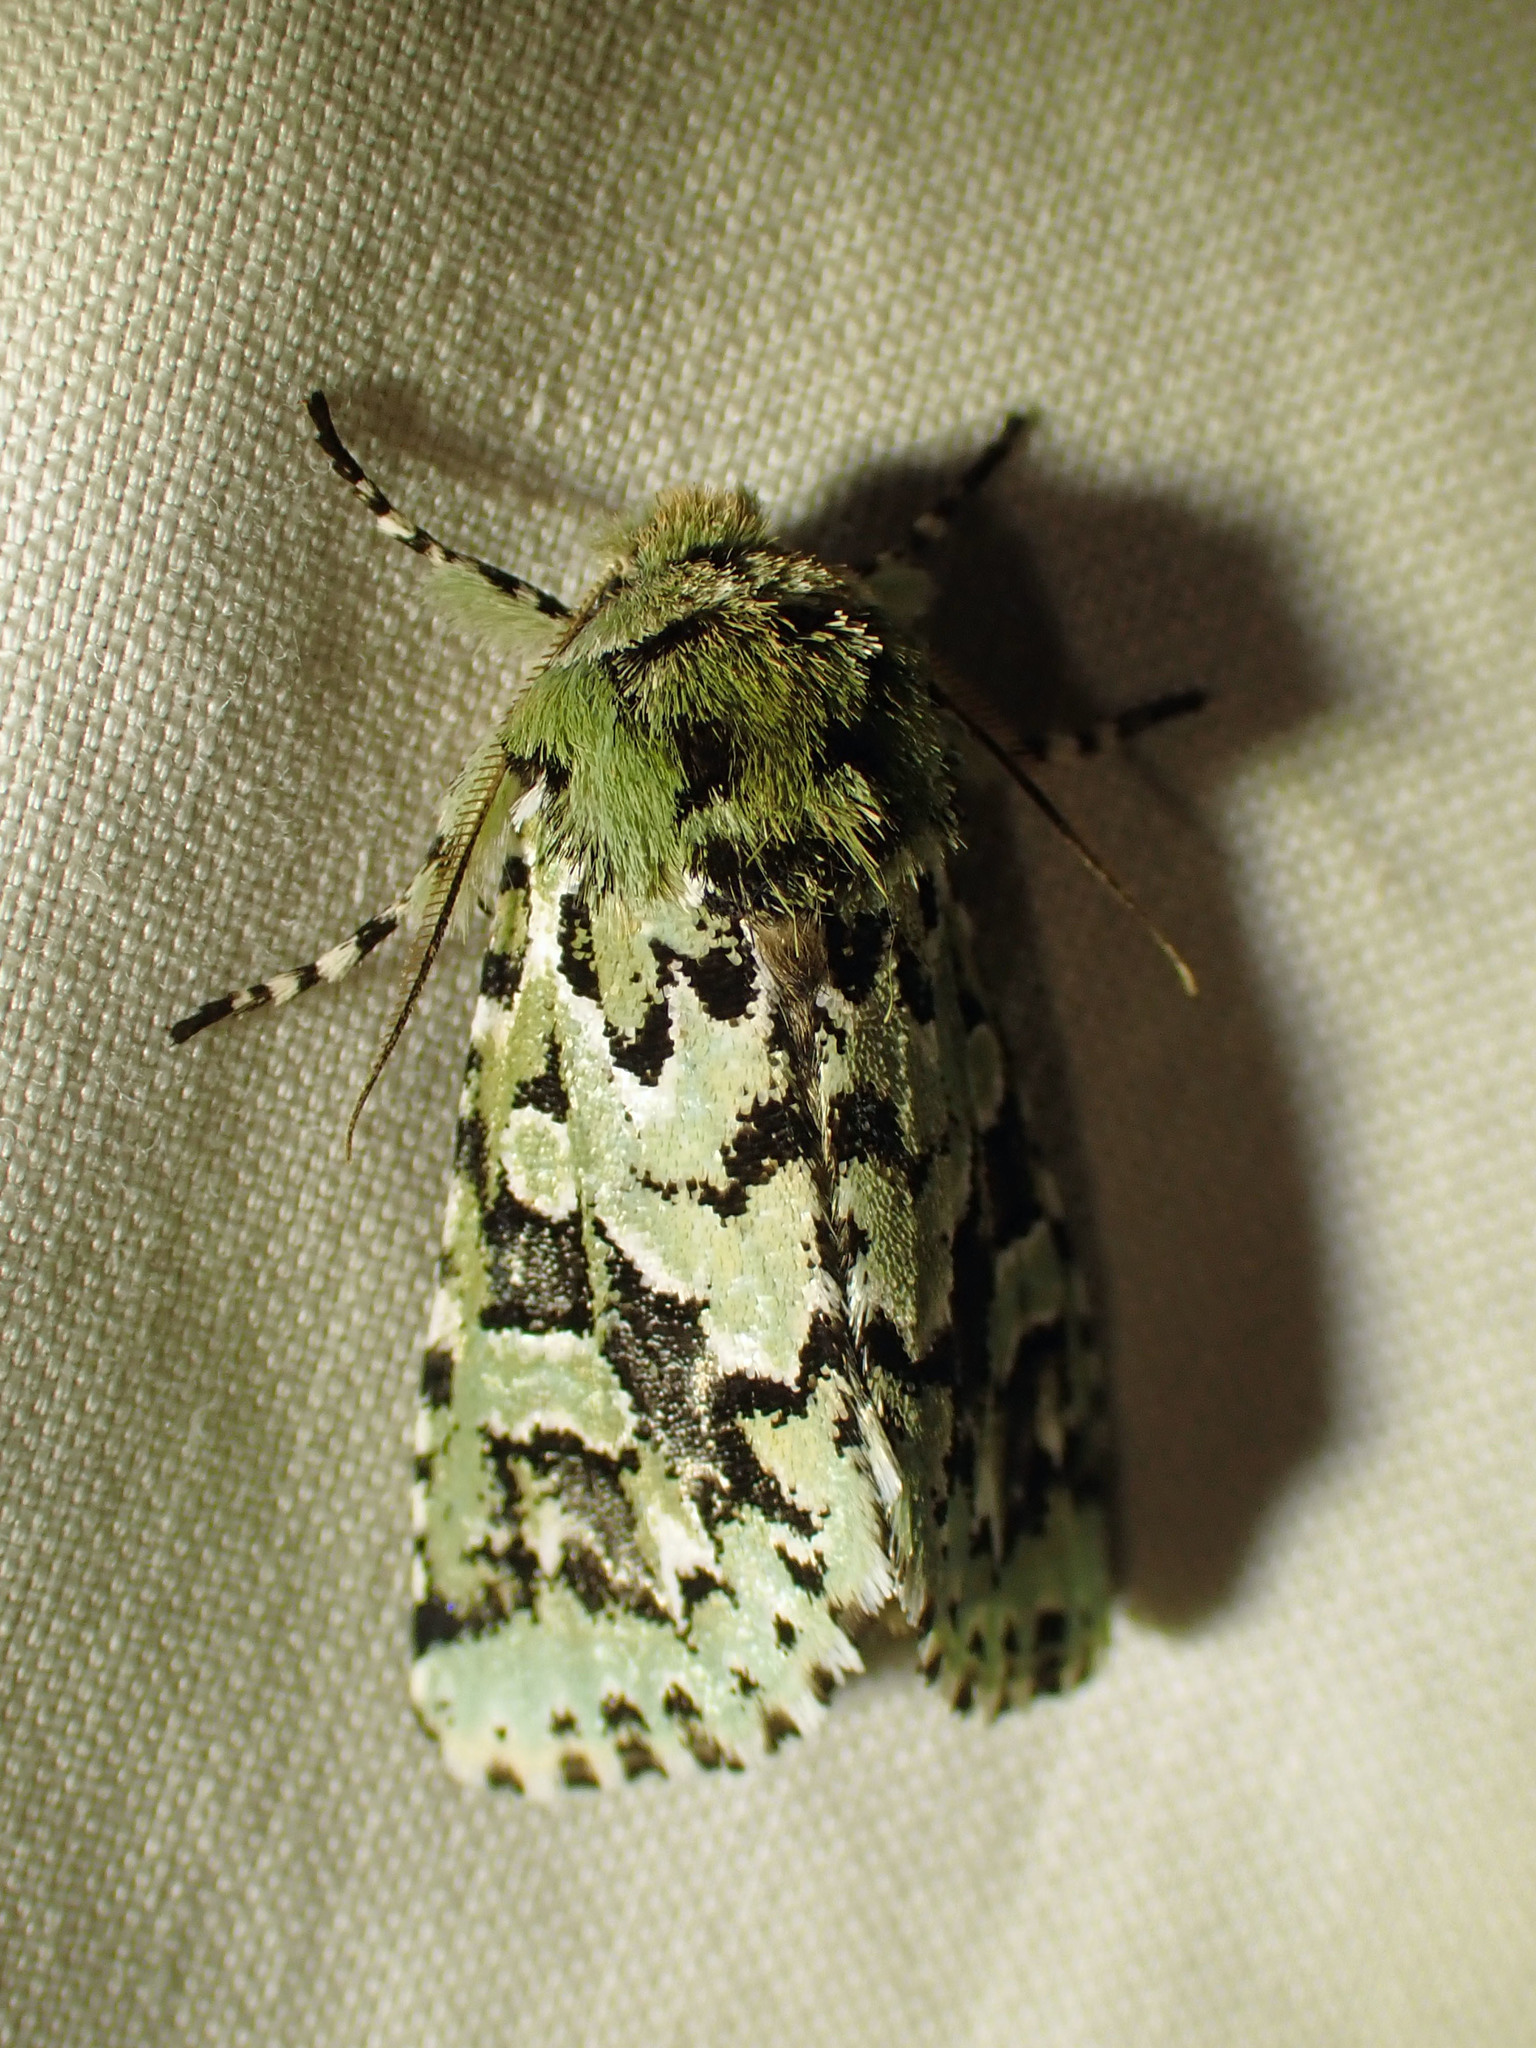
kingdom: Animalia
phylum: Arthropoda
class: Insecta
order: Lepidoptera
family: Noctuidae
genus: Feralia
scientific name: Feralia comstocki
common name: Comstock's sallow
